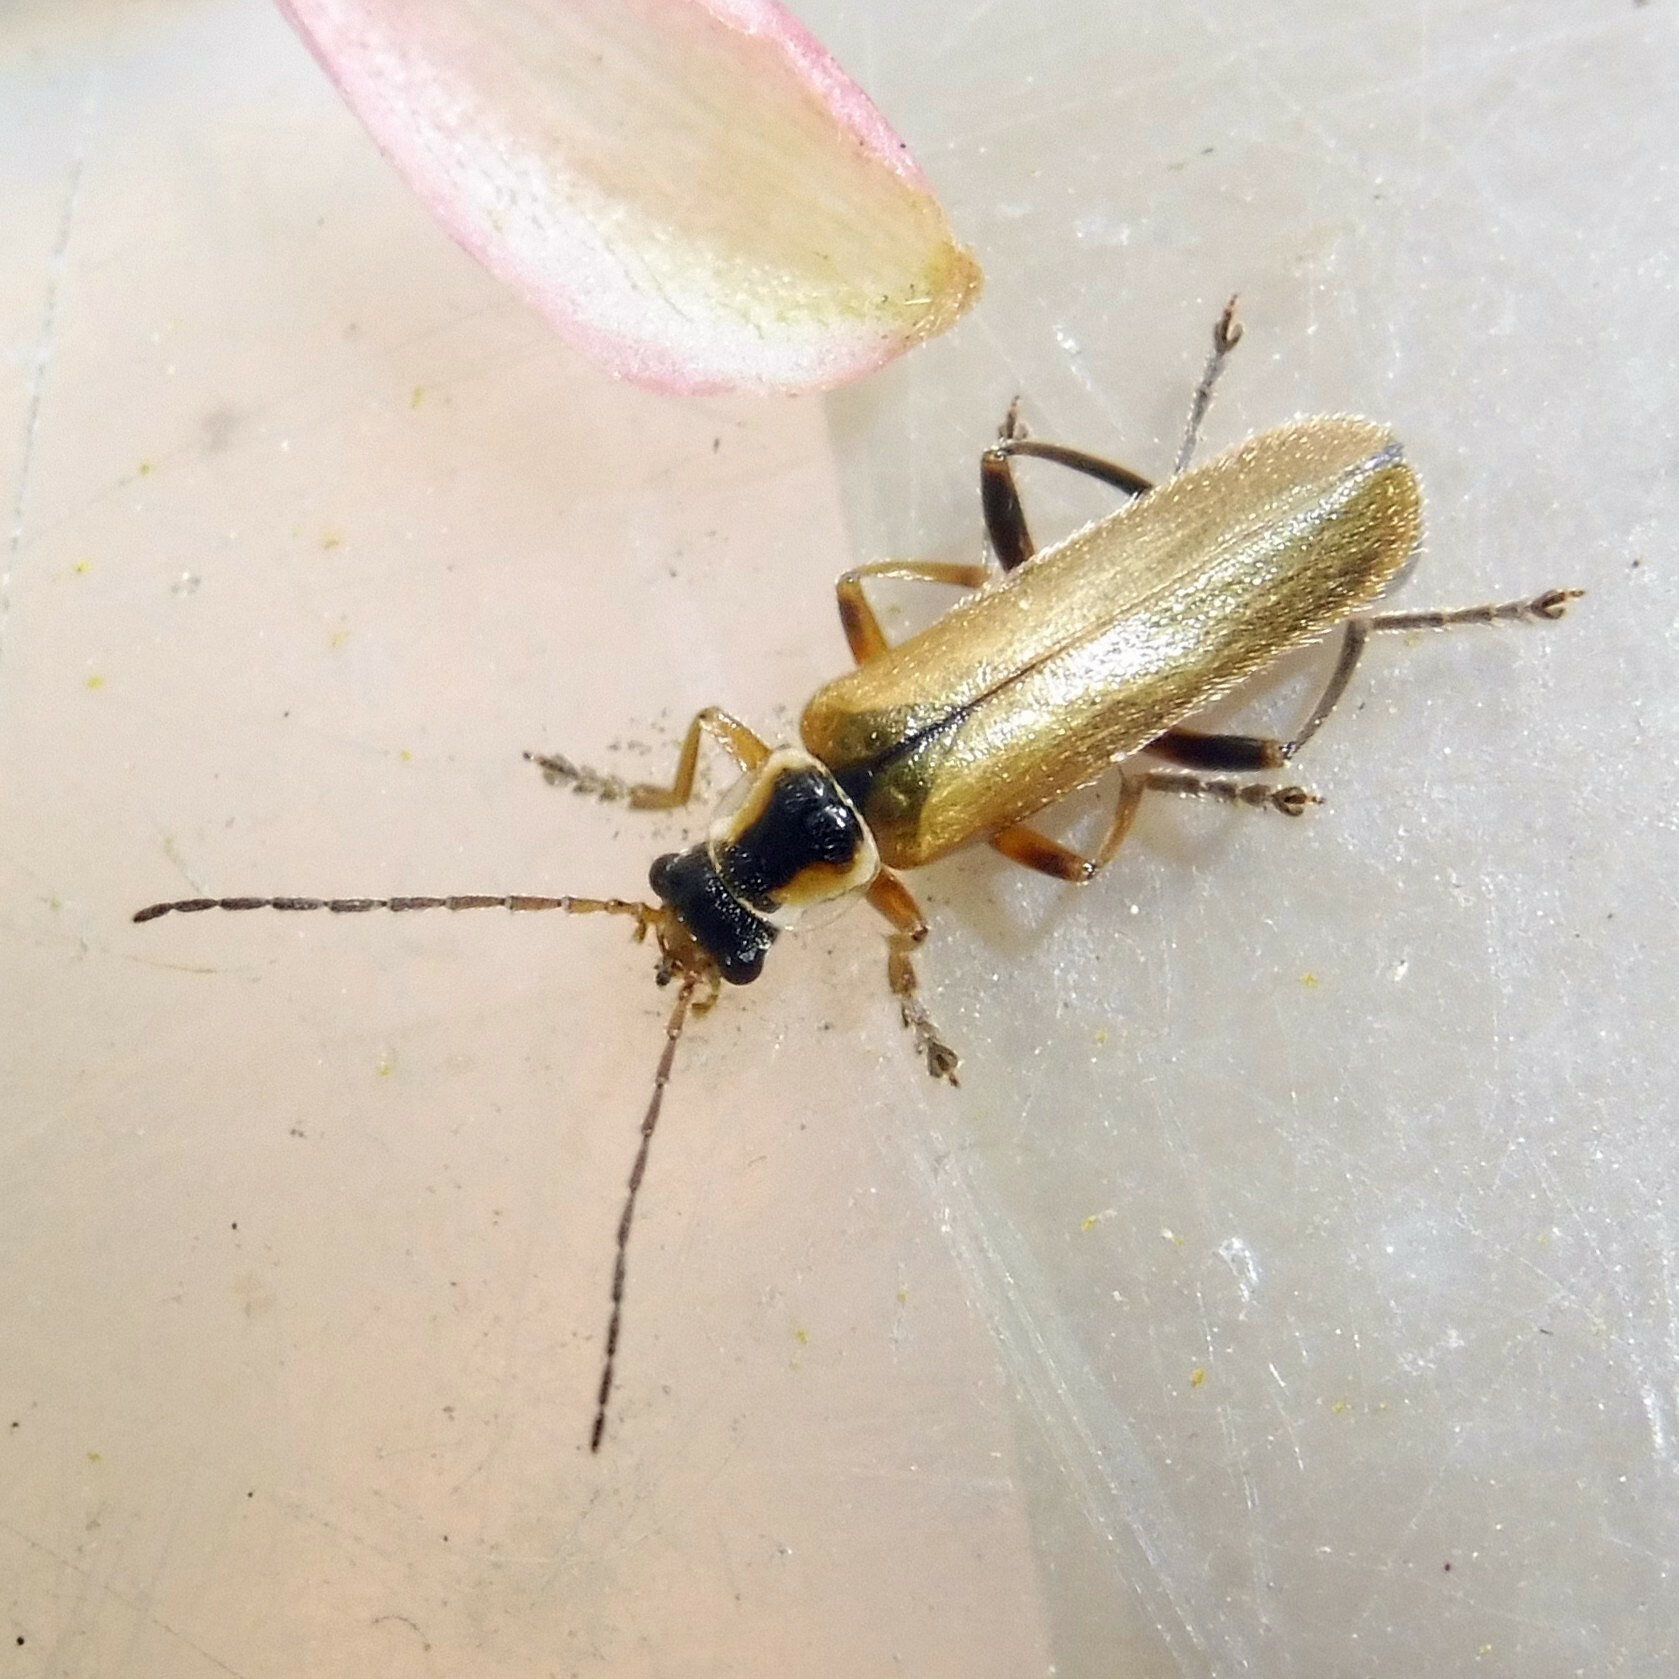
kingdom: Animalia
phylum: Arthropoda
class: Insecta
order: Coleoptera
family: Cantharidae
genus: Cantharis
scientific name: Cantharis decipiens
